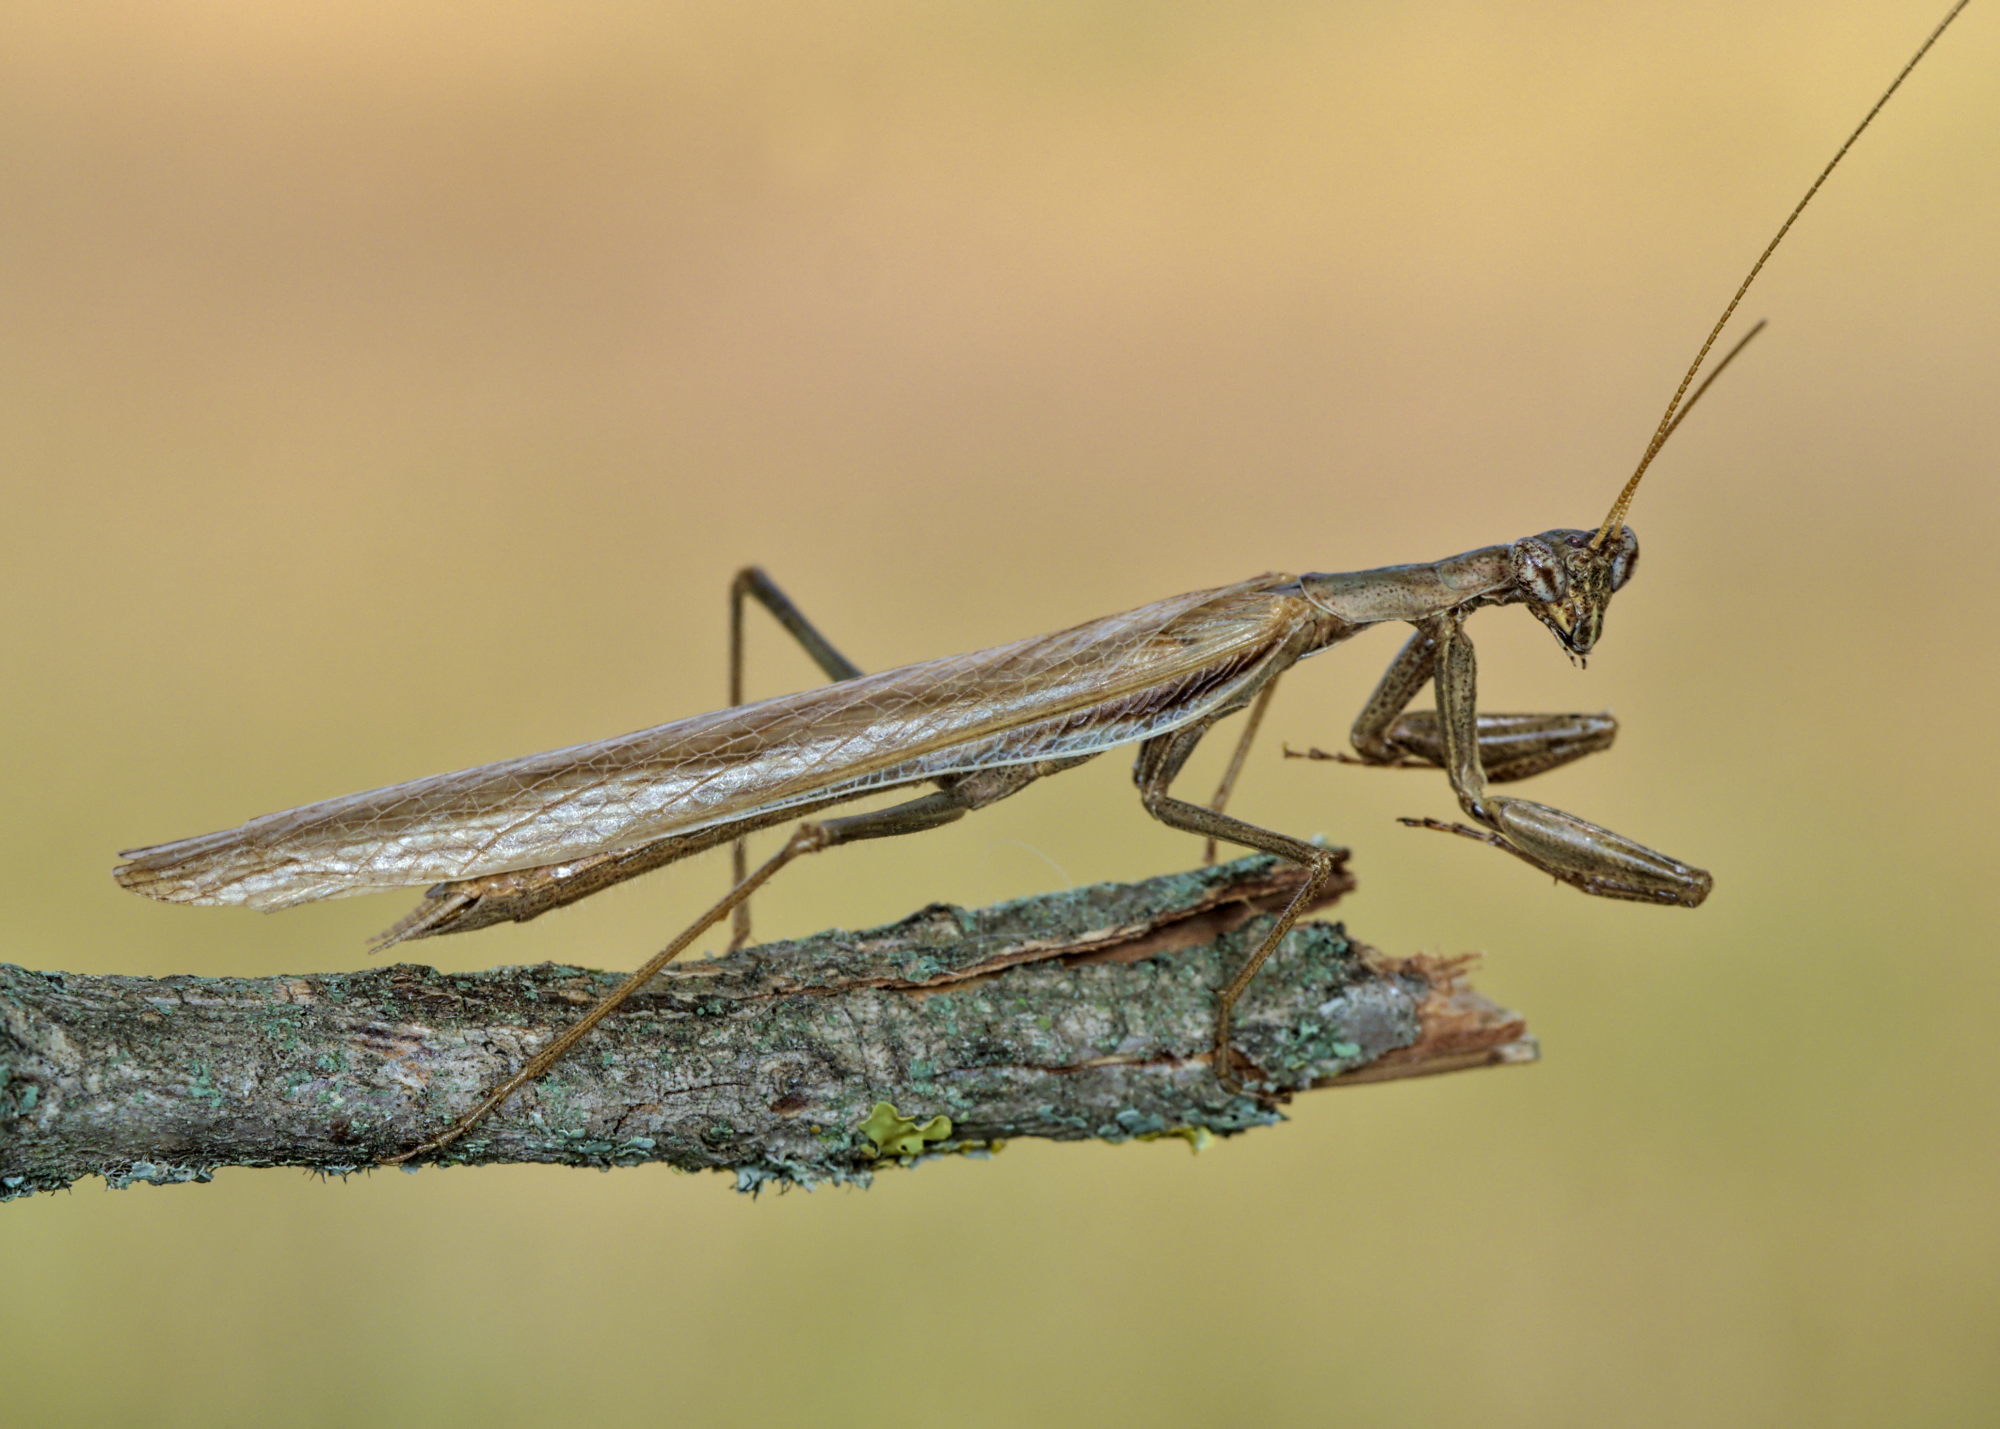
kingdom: Animalia
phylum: Arthropoda
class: Insecta
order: Mantodea
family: Amelidae
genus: Ameles
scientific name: Ameles decolor
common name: Dwarf mantis
